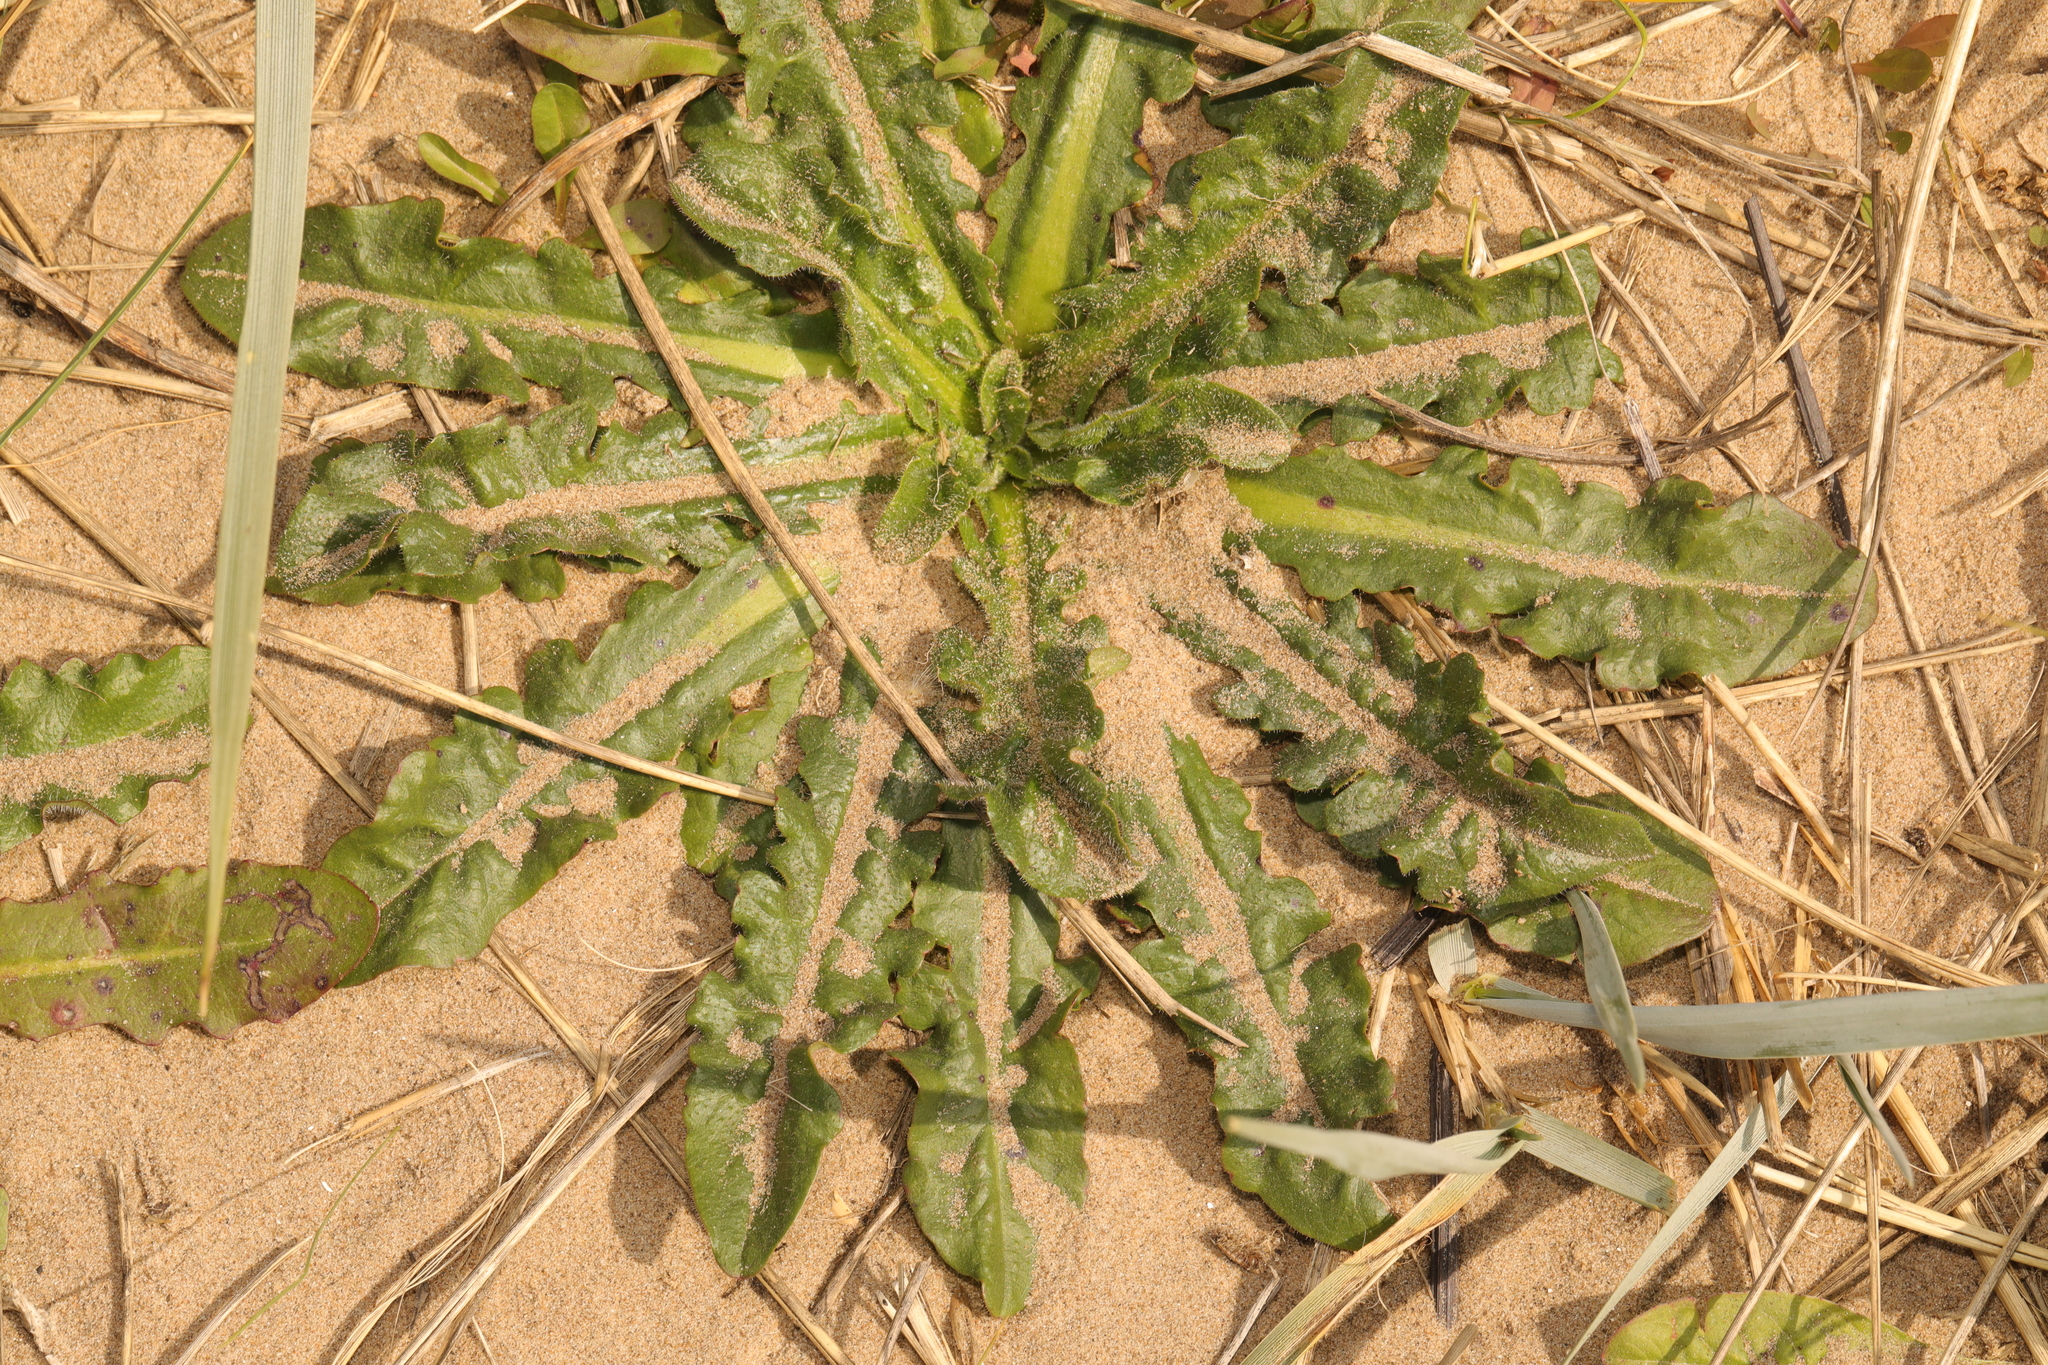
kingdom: Plantae
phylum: Tracheophyta
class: Magnoliopsida
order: Asterales
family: Asteraceae
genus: Hypochaeris
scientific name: Hypochaeris radicata
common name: Flatweed
